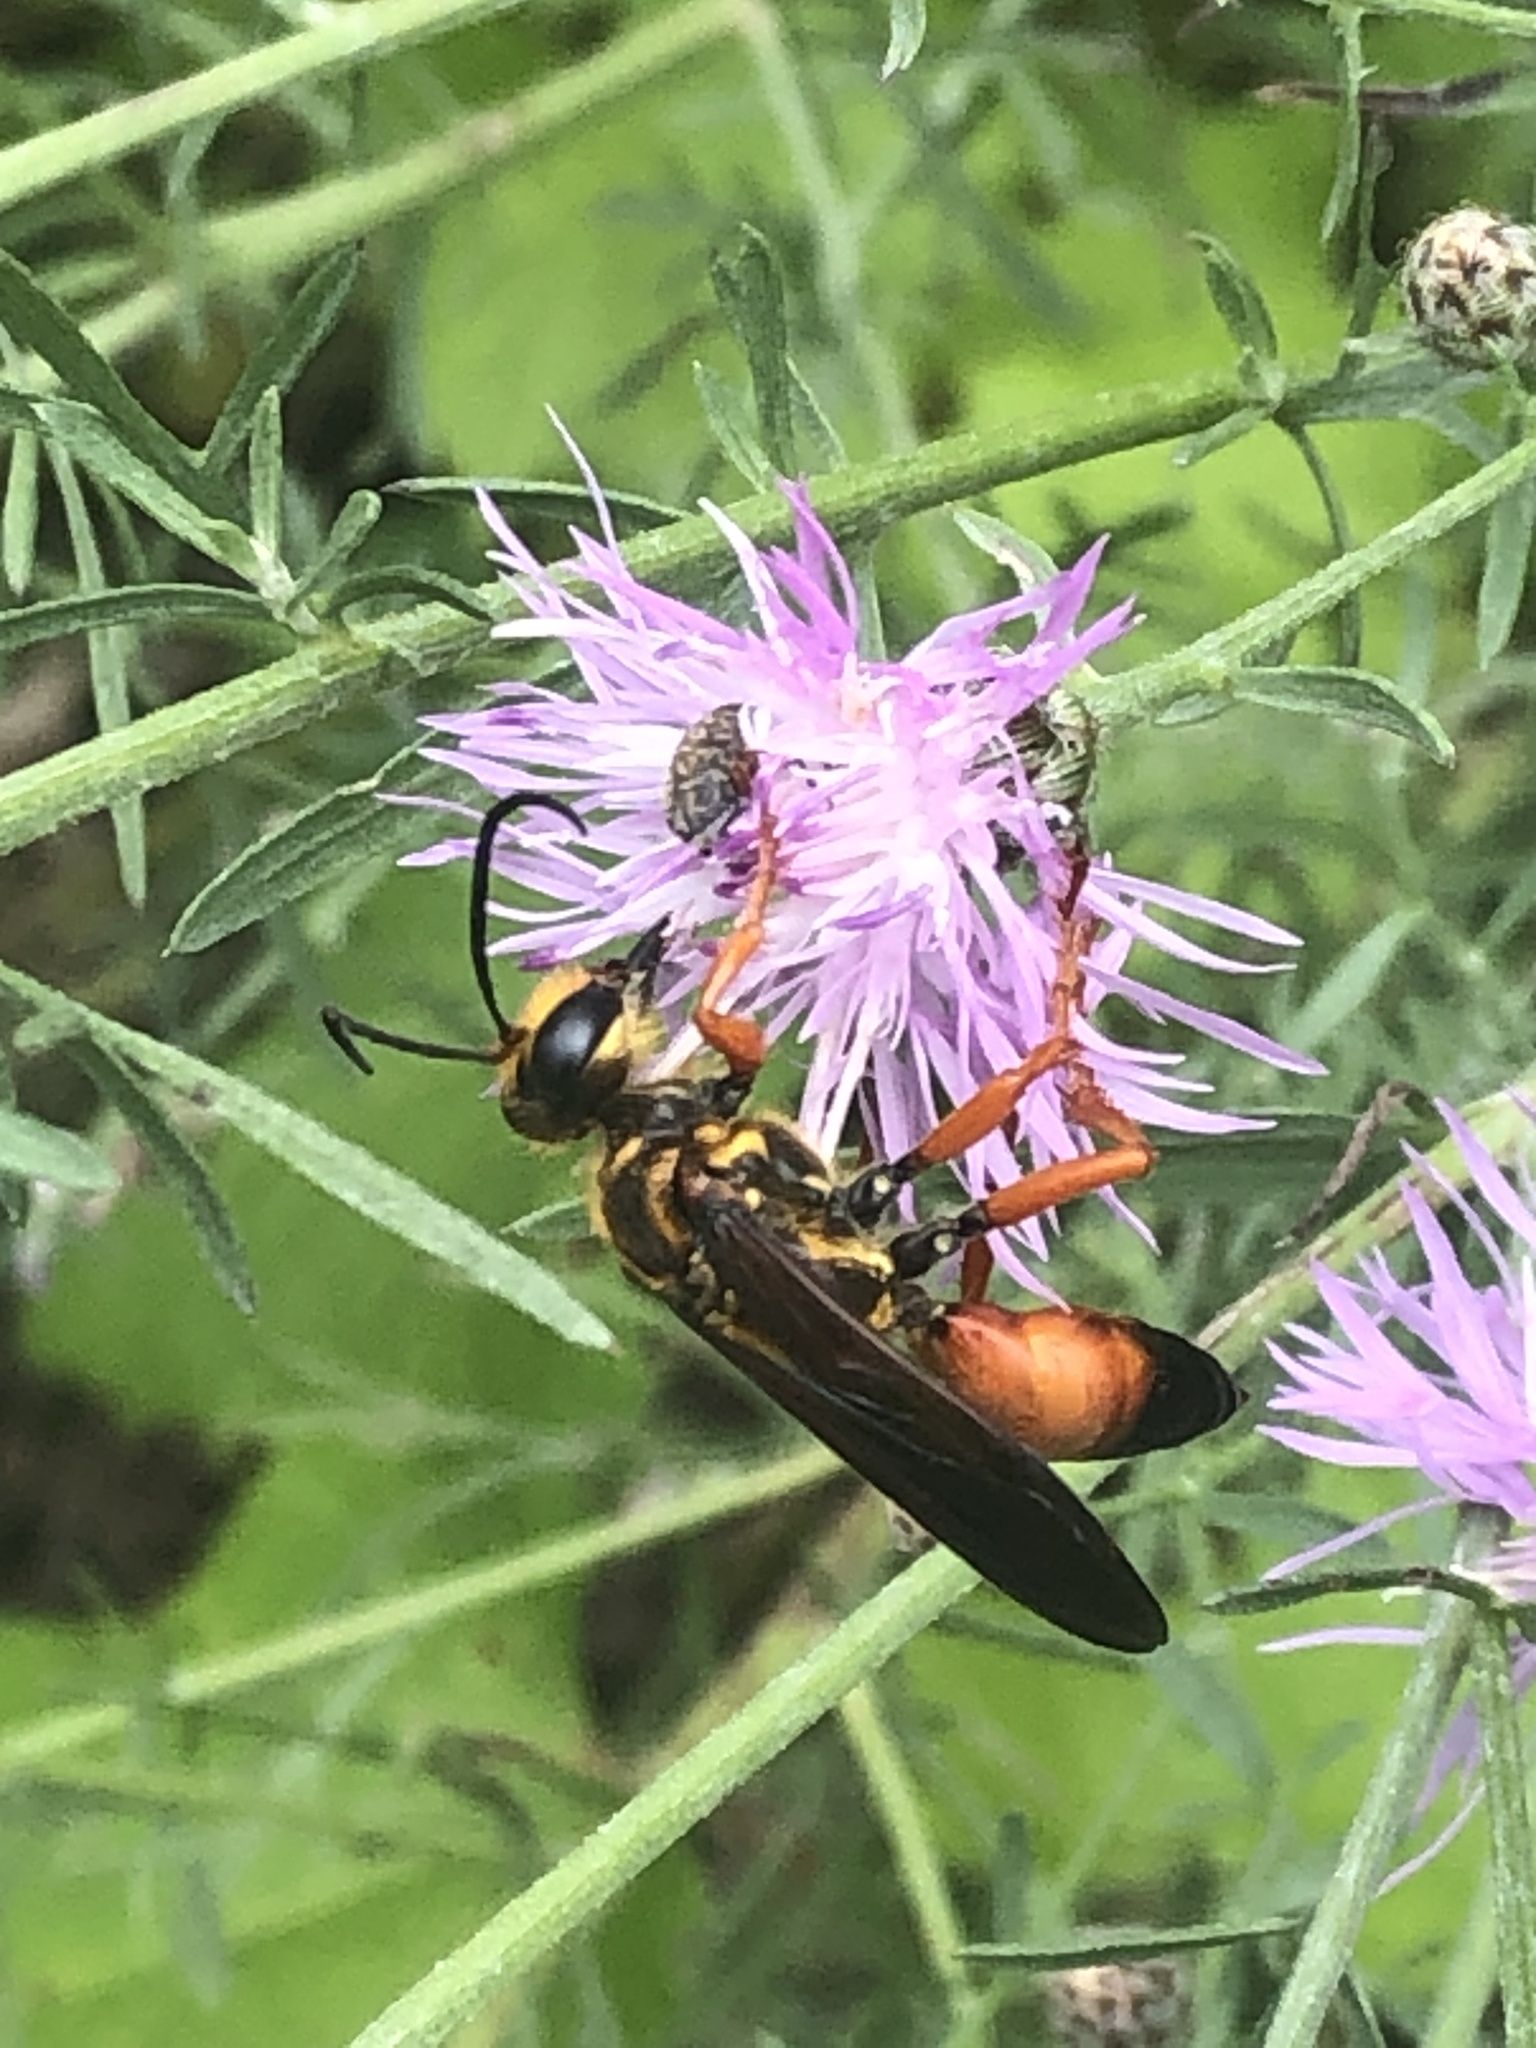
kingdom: Animalia
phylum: Arthropoda
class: Insecta
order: Hymenoptera
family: Sphecidae
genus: Sphex
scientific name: Sphex ichneumoneus
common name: Great golden digger wasp
